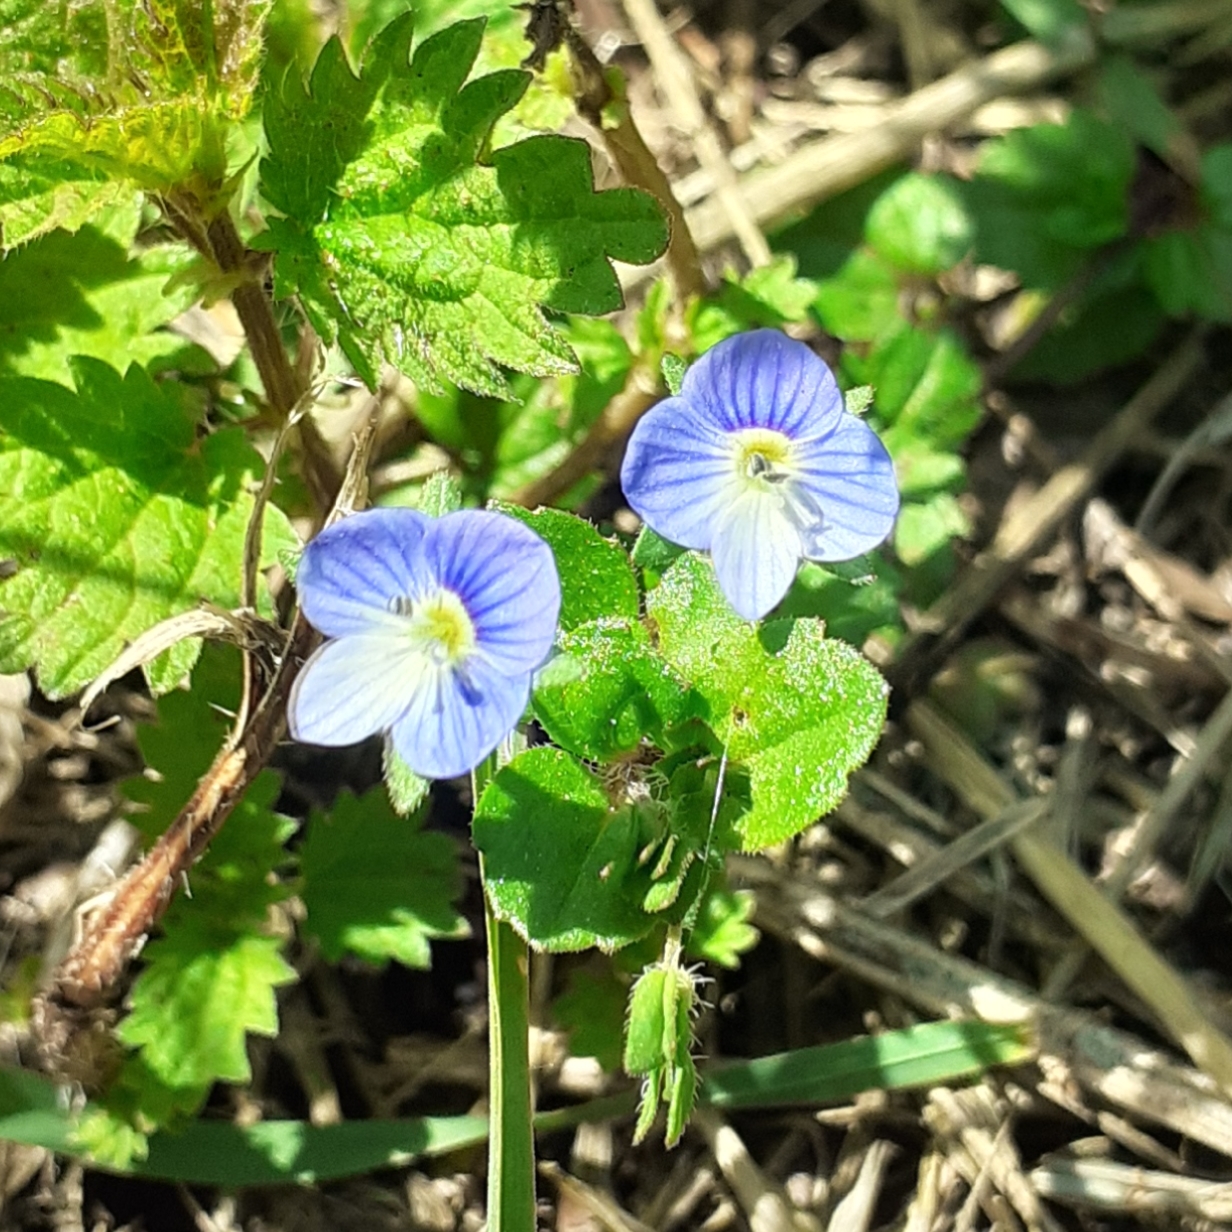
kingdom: Plantae
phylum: Tracheophyta
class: Magnoliopsida
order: Lamiales
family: Plantaginaceae
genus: Veronica
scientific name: Veronica persica
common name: Common field-speedwell
